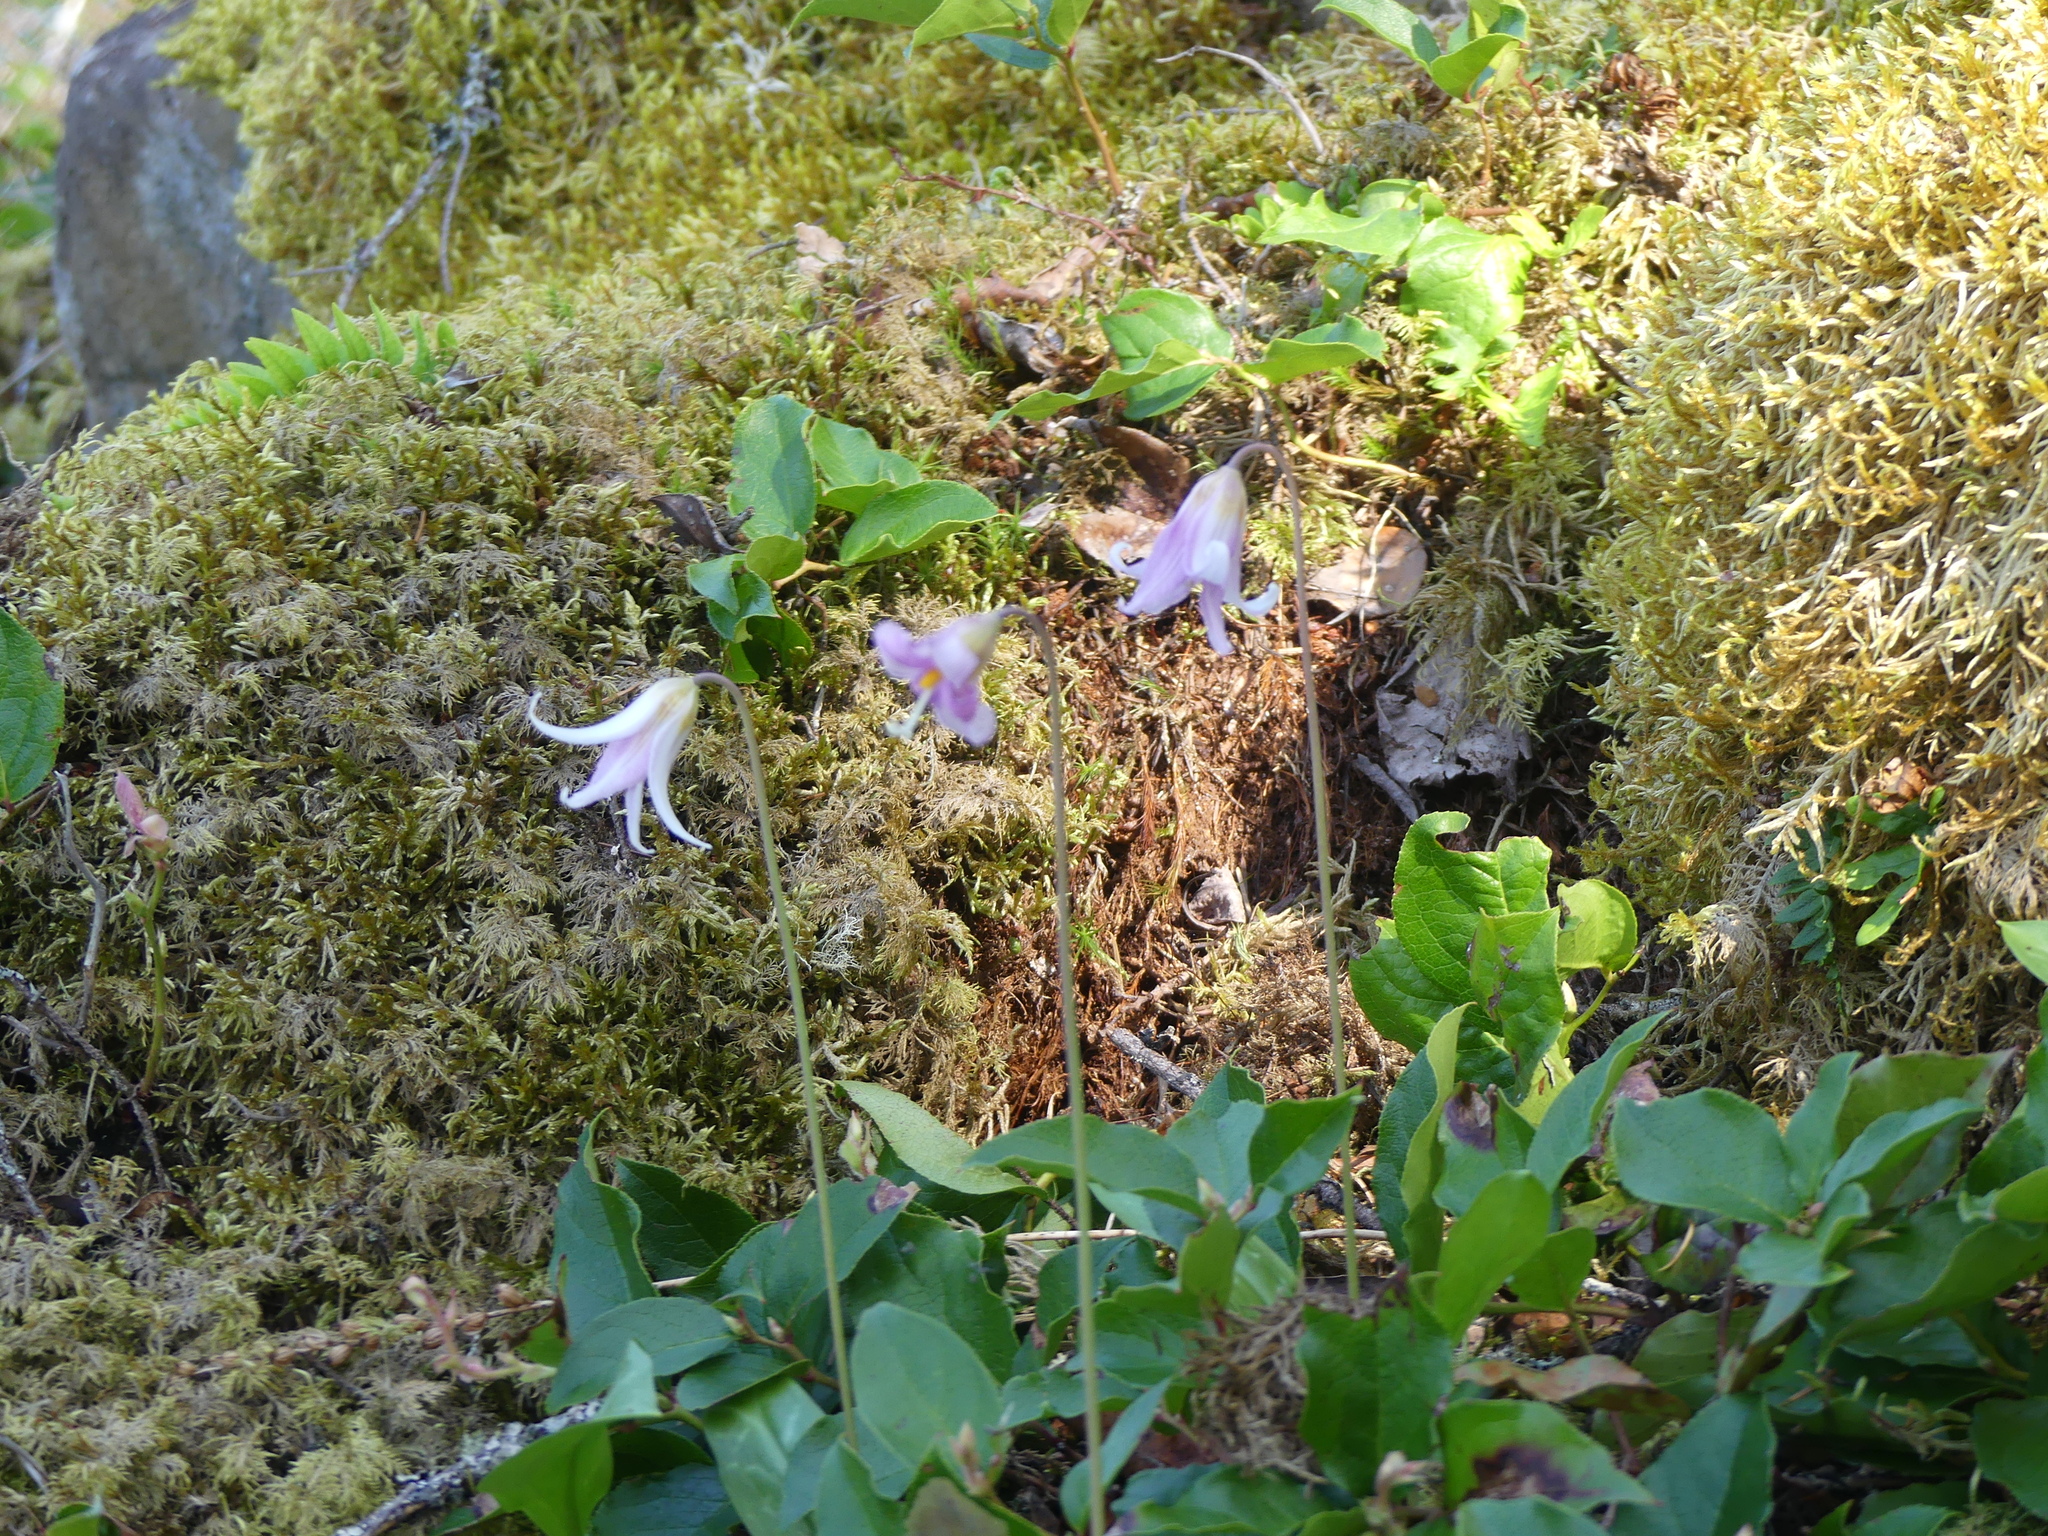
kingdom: Plantae
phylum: Tracheophyta
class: Liliopsida
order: Liliales
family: Liliaceae
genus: Erythronium
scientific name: Erythronium oregonum
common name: Giant adder's-tongue
